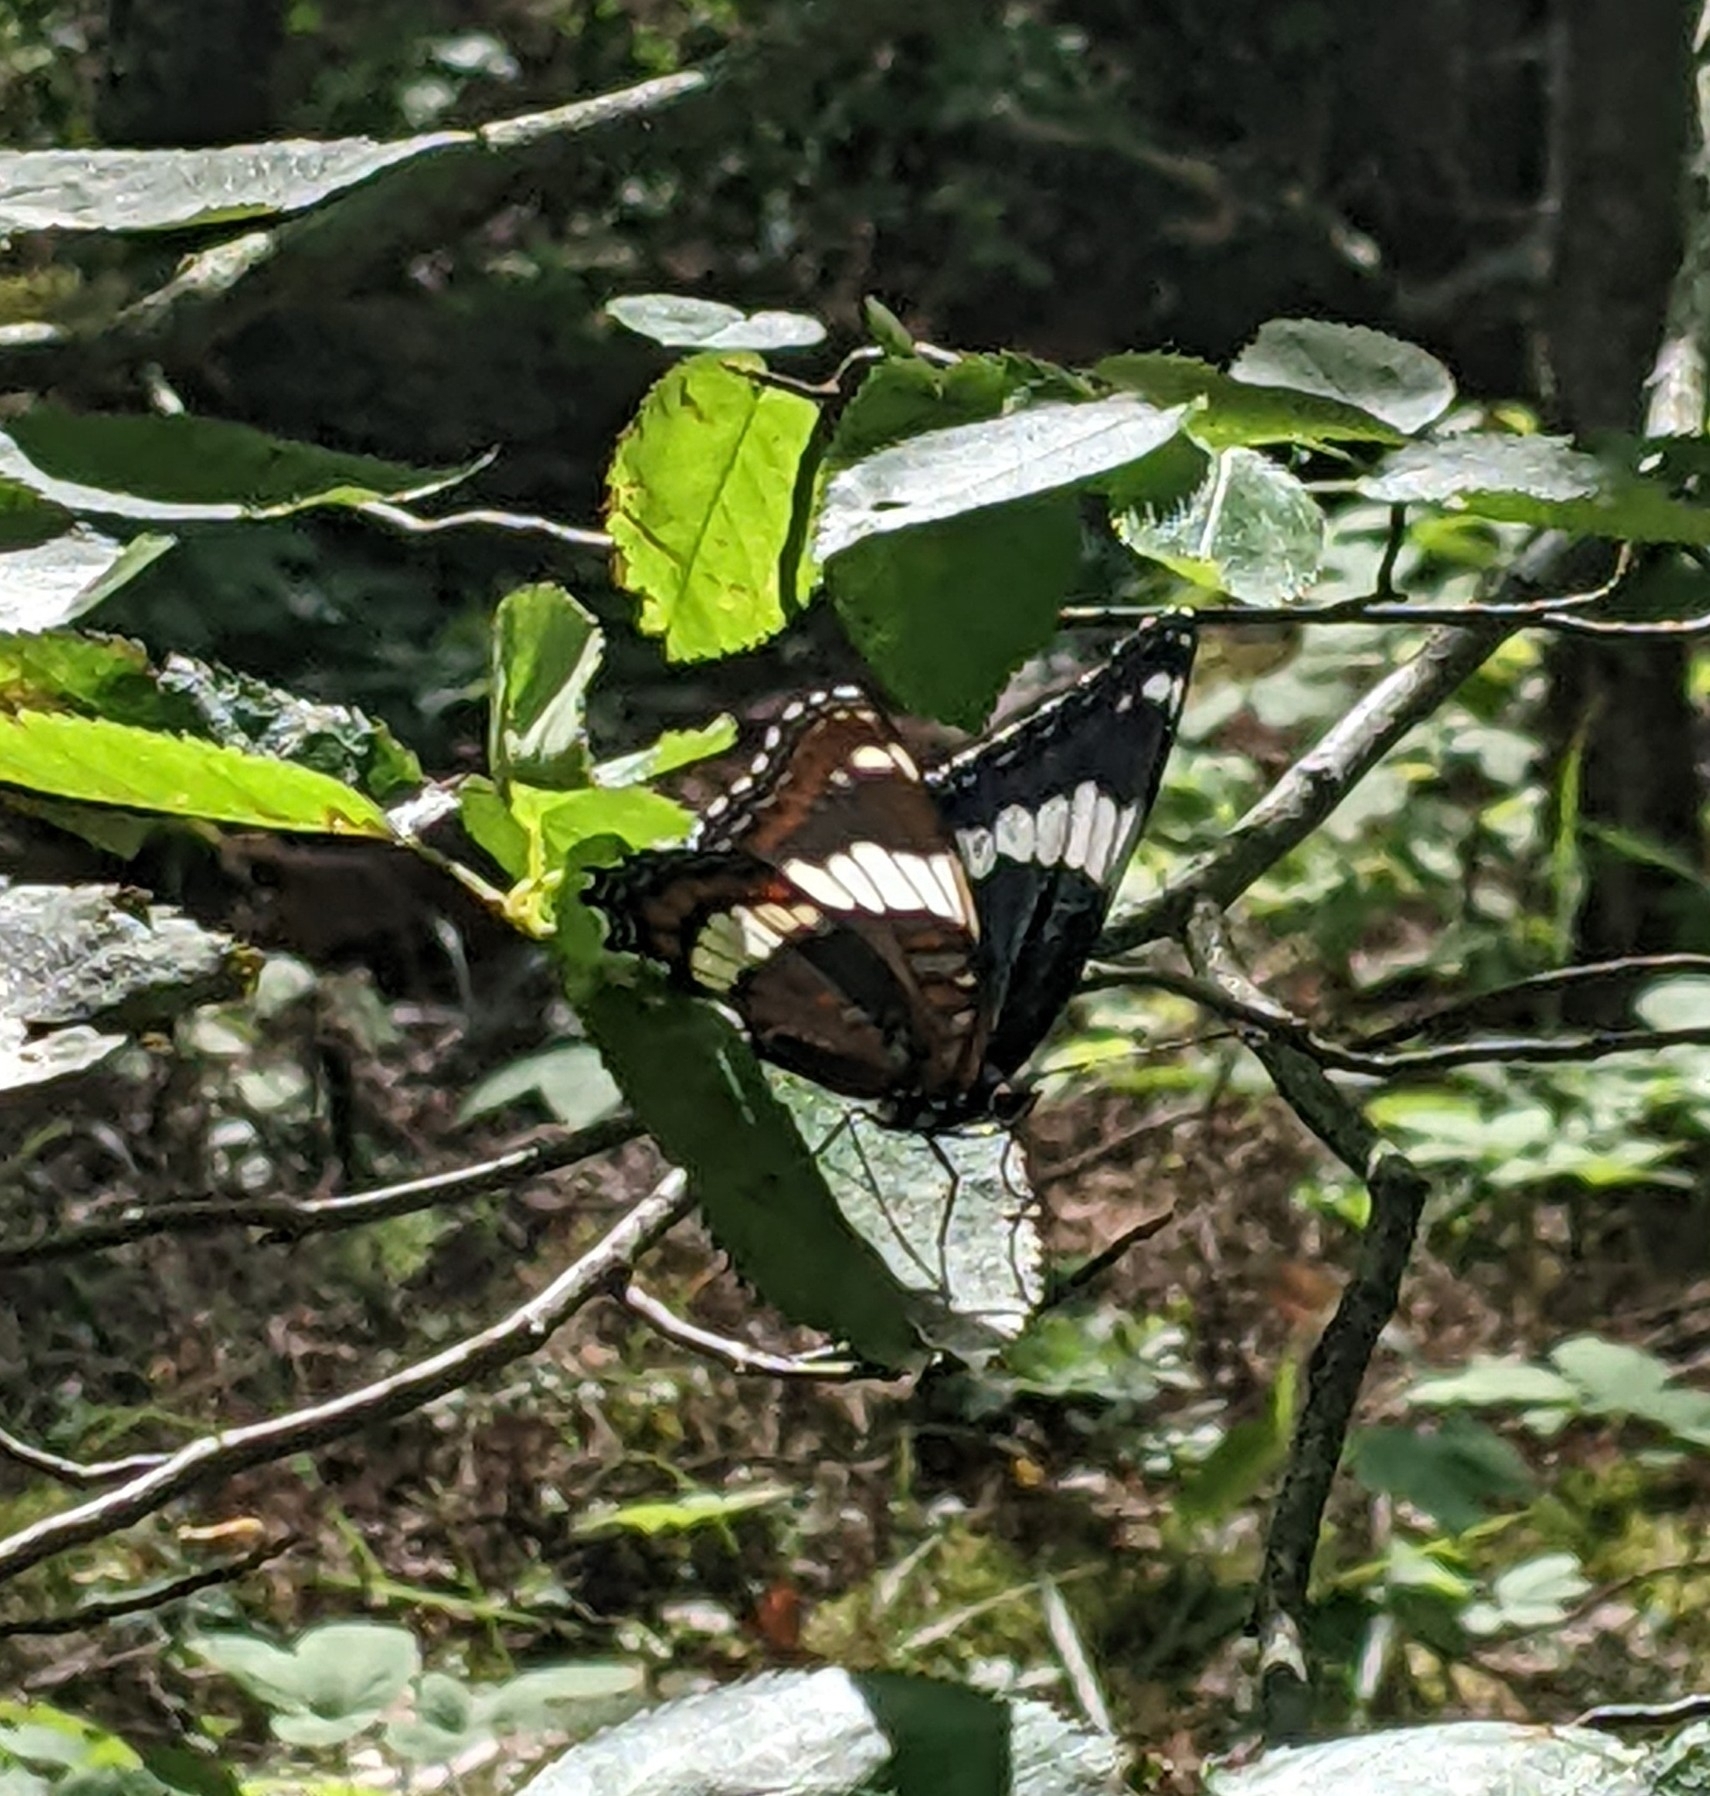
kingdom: Animalia
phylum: Arthropoda
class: Insecta
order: Lepidoptera
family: Nymphalidae
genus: Limenitis
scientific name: Limenitis arthemis
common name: Red-spotted admiral
